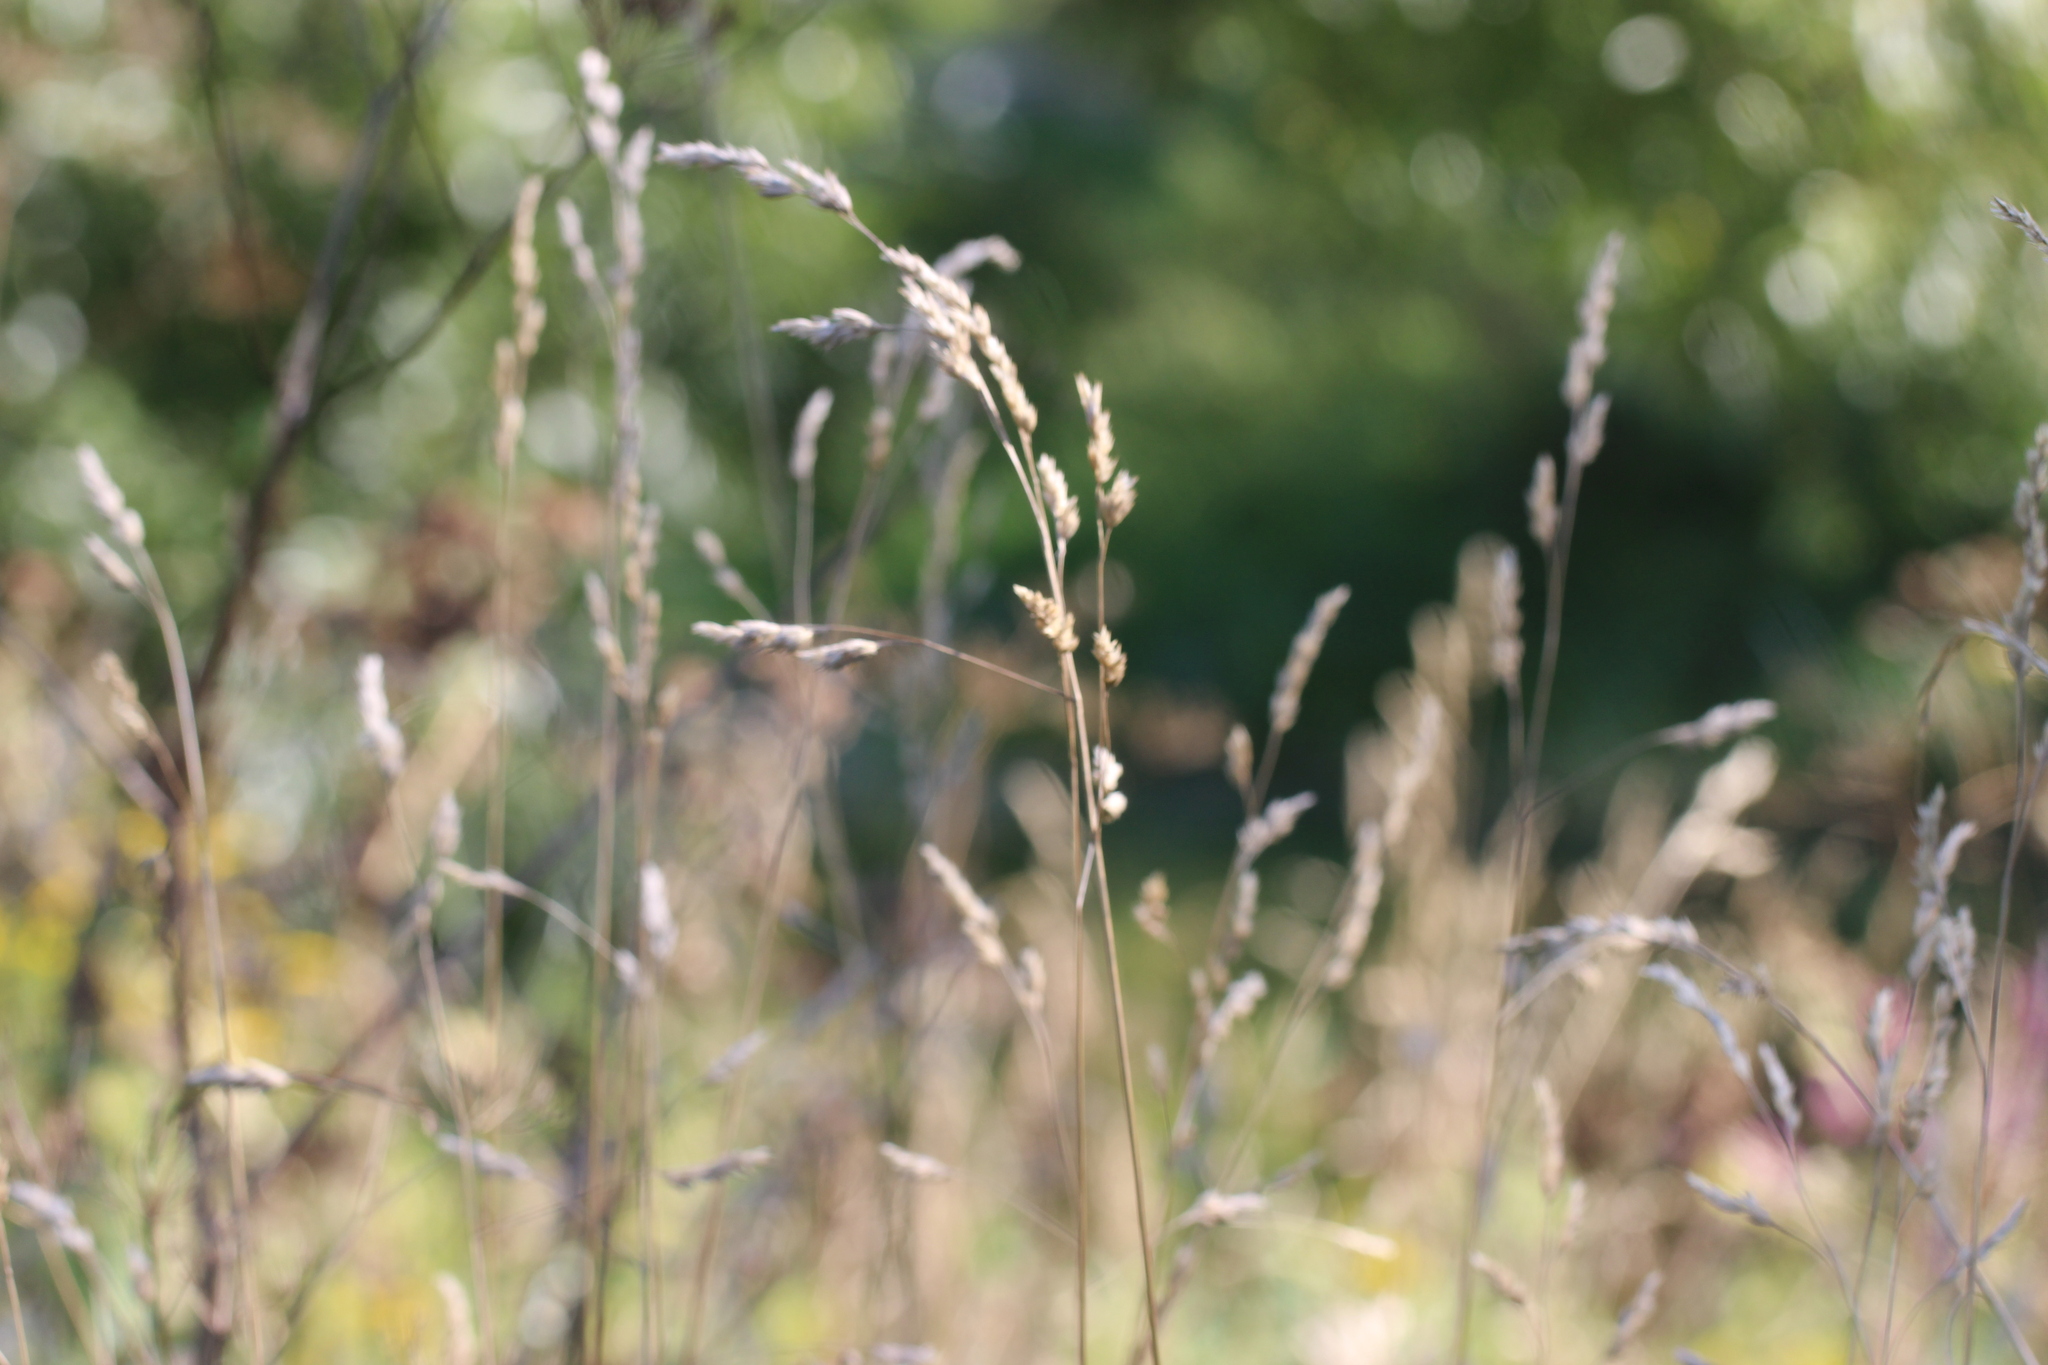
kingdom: Plantae
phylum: Tracheophyta
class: Liliopsida
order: Poales
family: Poaceae
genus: Dactylis
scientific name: Dactylis glomerata
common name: Orchardgrass
